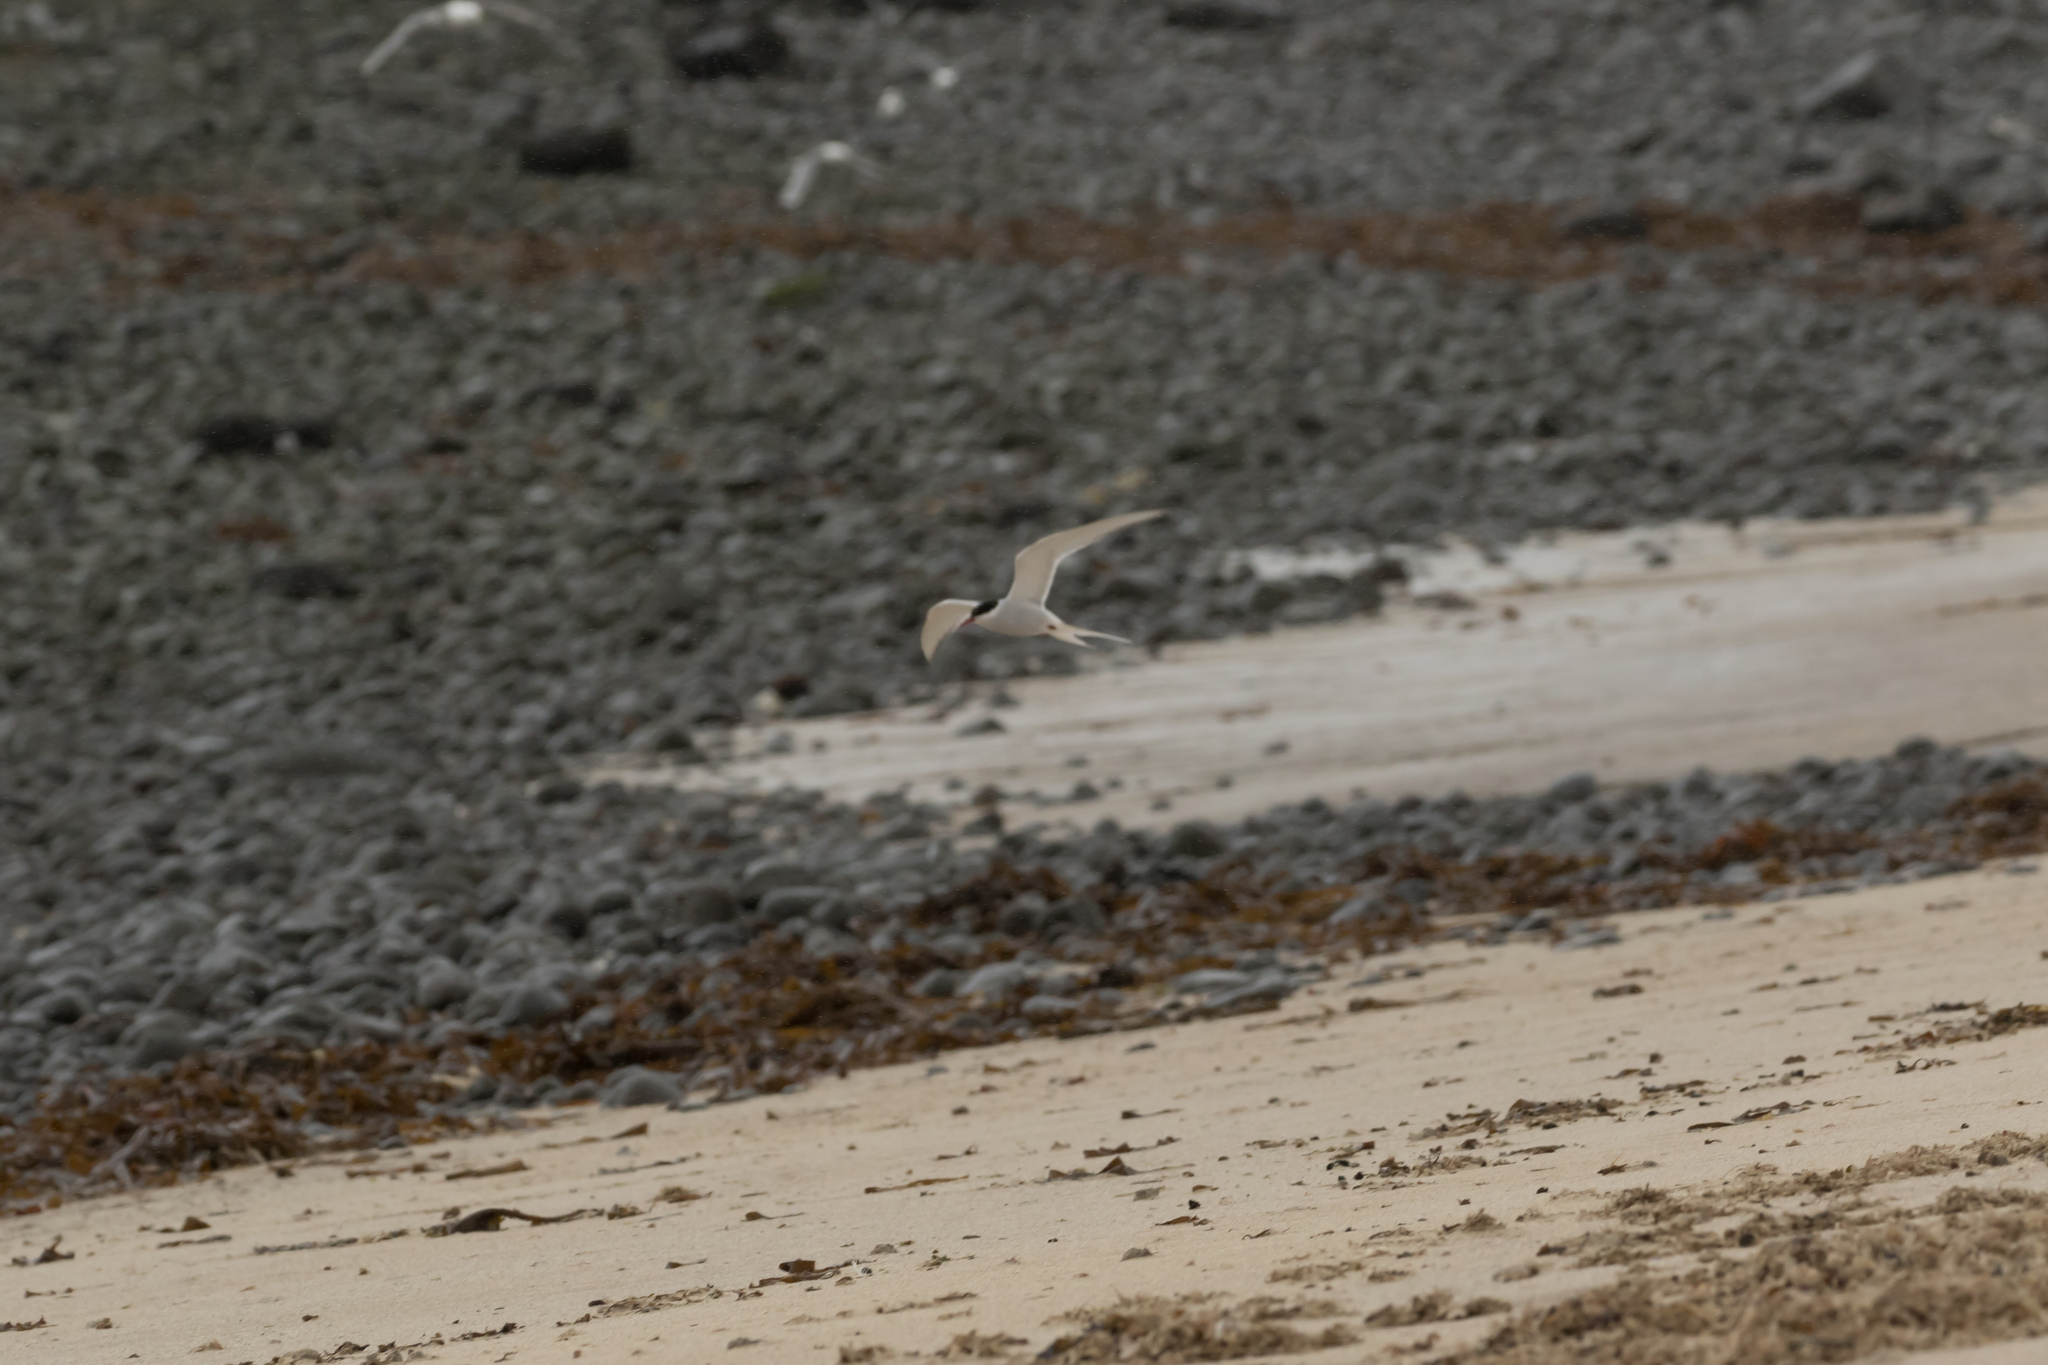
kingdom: Animalia
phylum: Chordata
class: Aves
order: Charadriiformes
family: Laridae
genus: Sterna
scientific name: Sterna paradisaea
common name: Arctic tern
